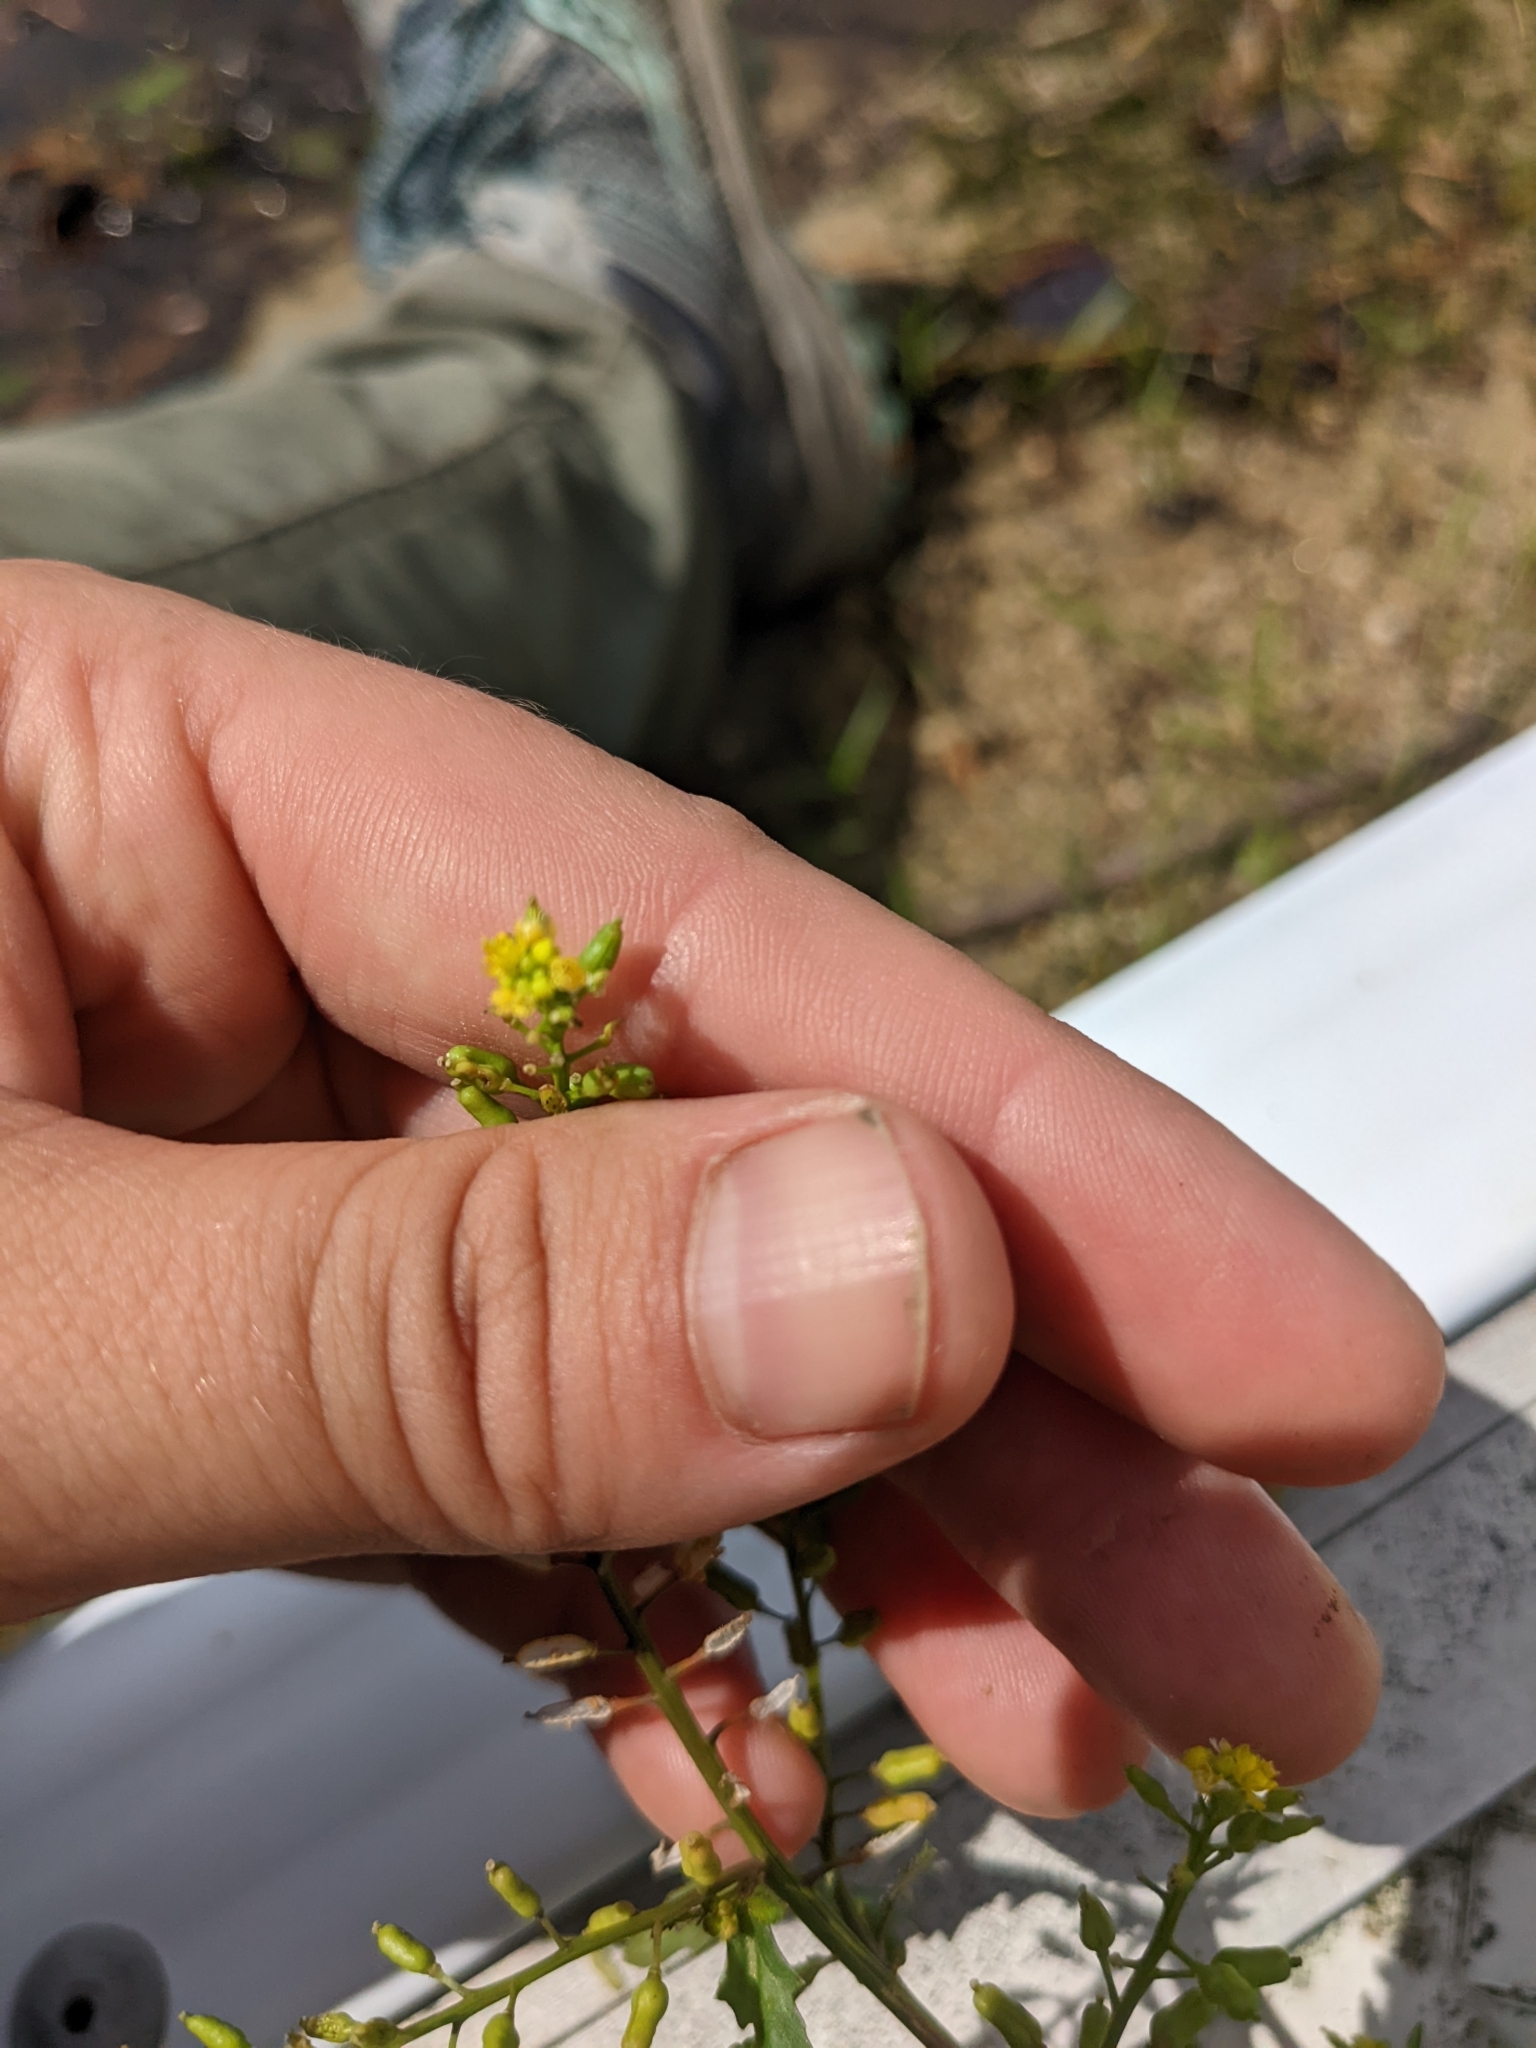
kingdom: Plantae
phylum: Tracheophyta
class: Magnoliopsida
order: Brassicales
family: Brassicaceae
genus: Rorippa
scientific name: Rorippa palustris
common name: Marsh yellow-cress
